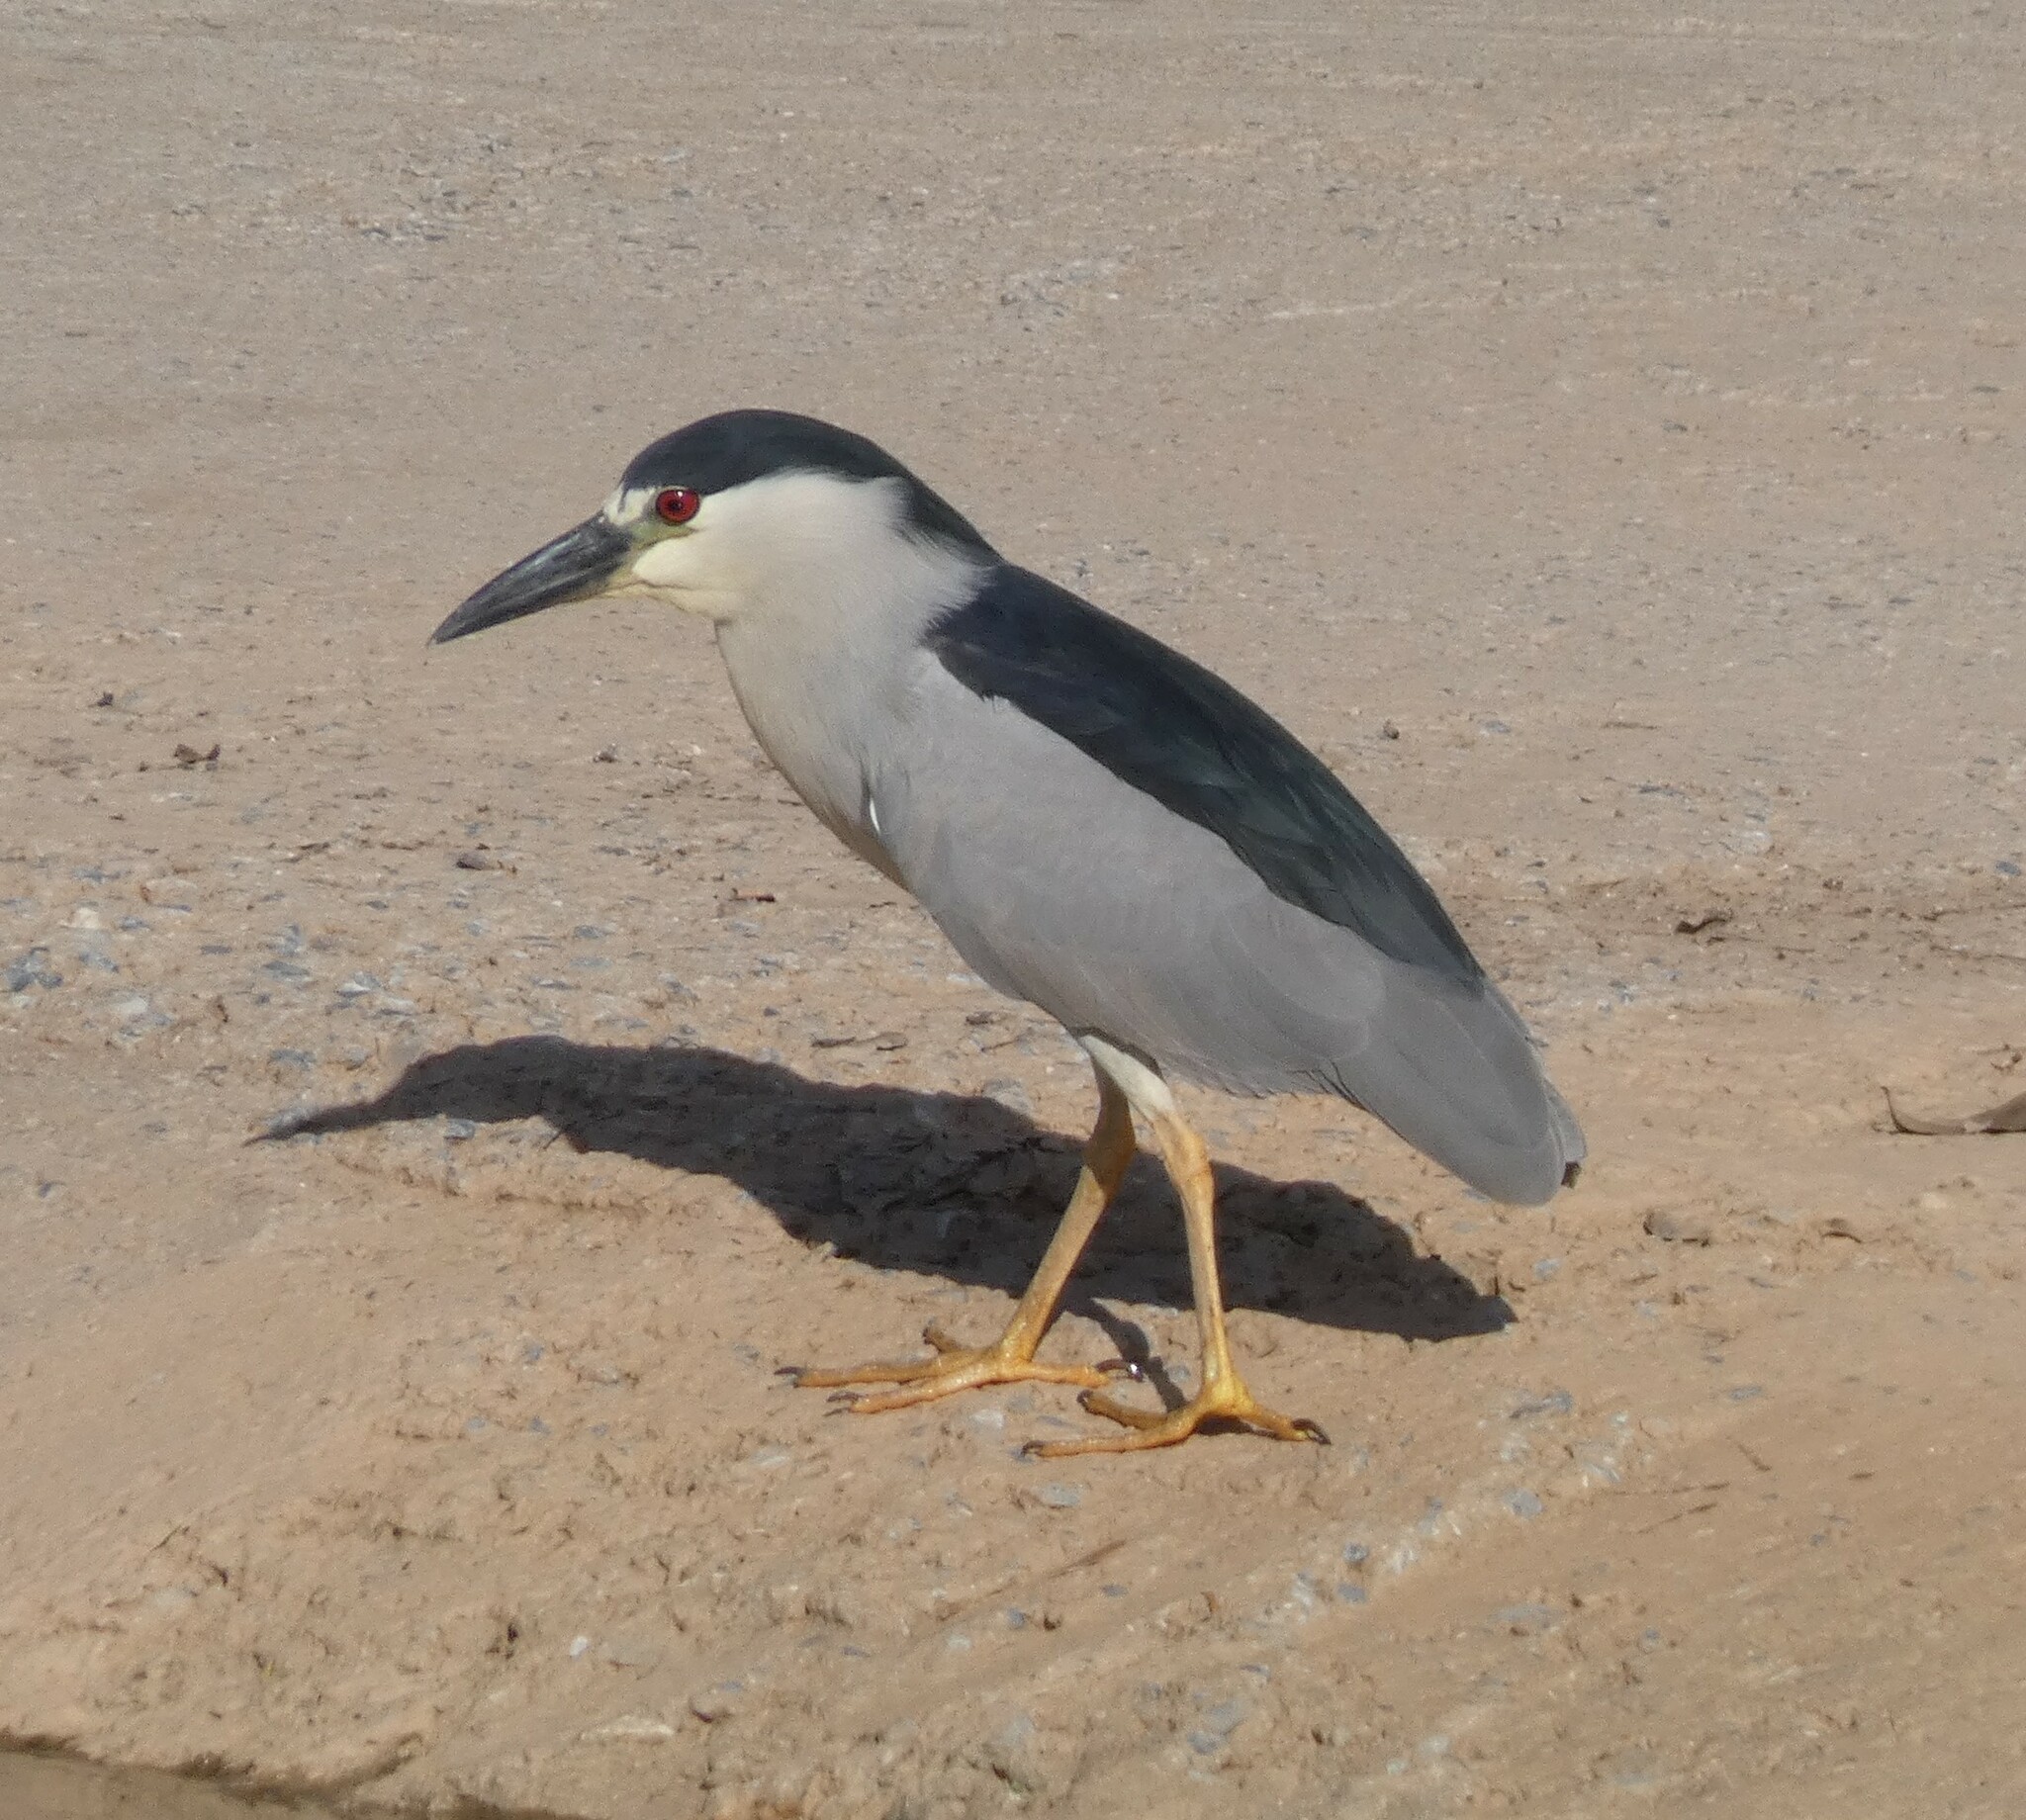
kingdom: Animalia
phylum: Chordata
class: Aves
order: Pelecaniformes
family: Ardeidae
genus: Nycticorax
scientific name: Nycticorax nycticorax
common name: Black-crowned night heron
